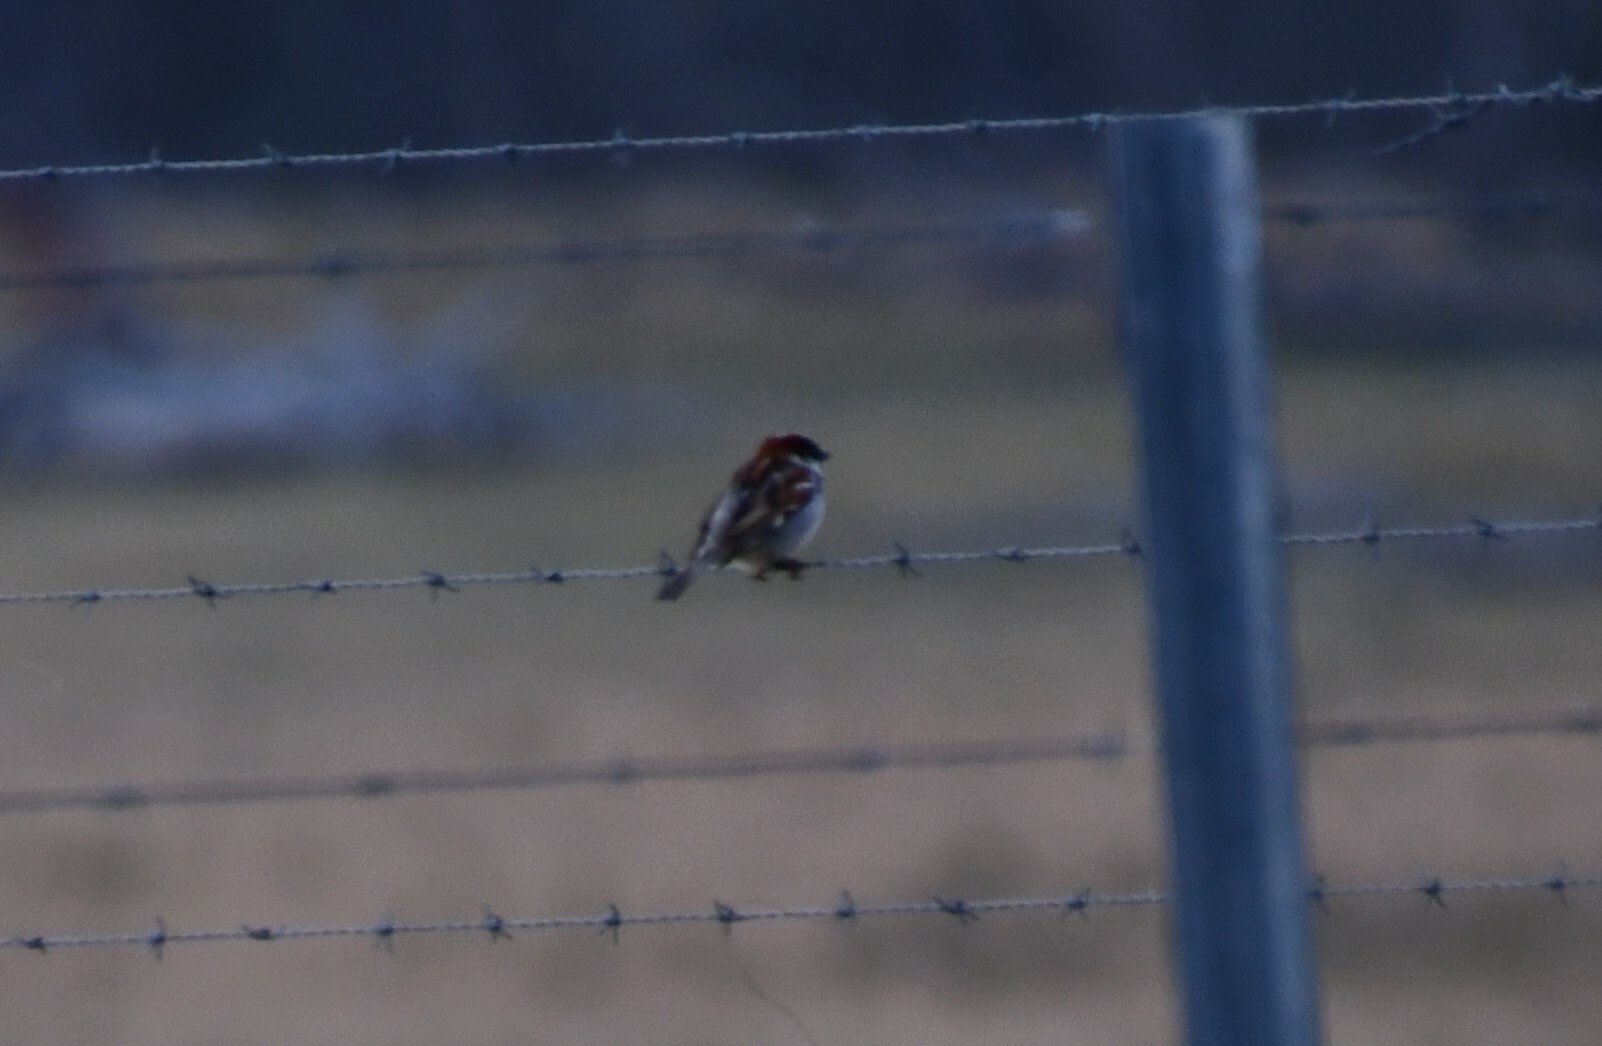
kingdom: Animalia
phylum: Chordata
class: Aves
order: Passeriformes
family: Passeridae
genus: Passer
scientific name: Passer domesticus
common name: House sparrow
